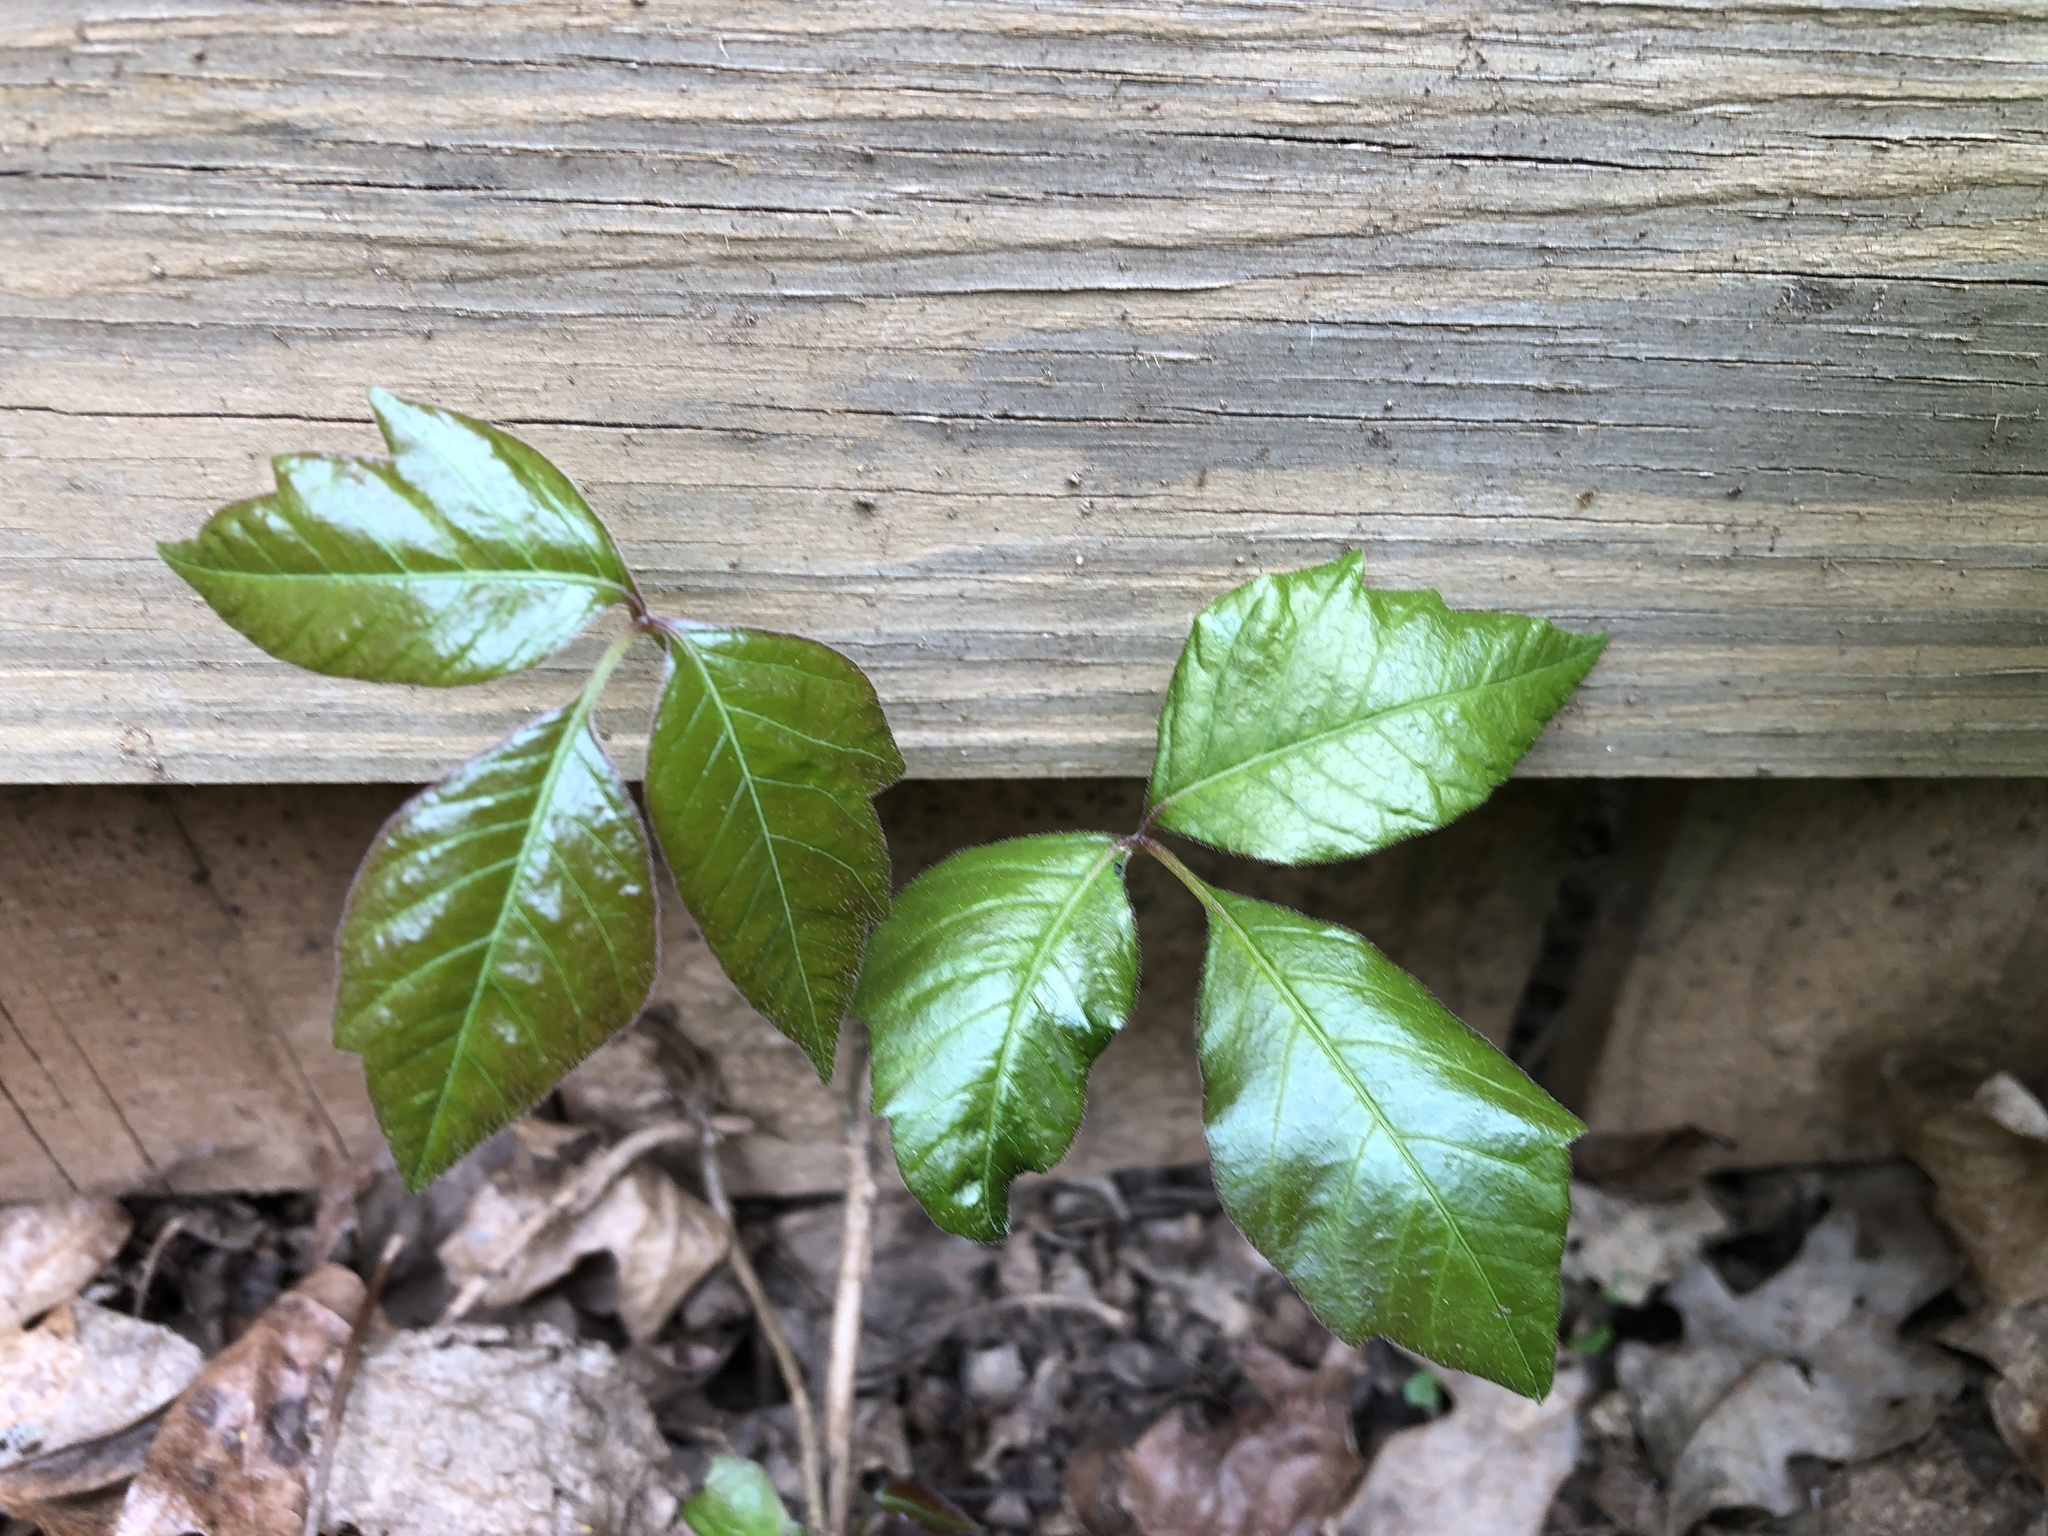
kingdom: Plantae
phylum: Tracheophyta
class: Magnoliopsida
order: Sapindales
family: Anacardiaceae
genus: Toxicodendron
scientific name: Toxicodendron radicans
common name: Poison ivy
